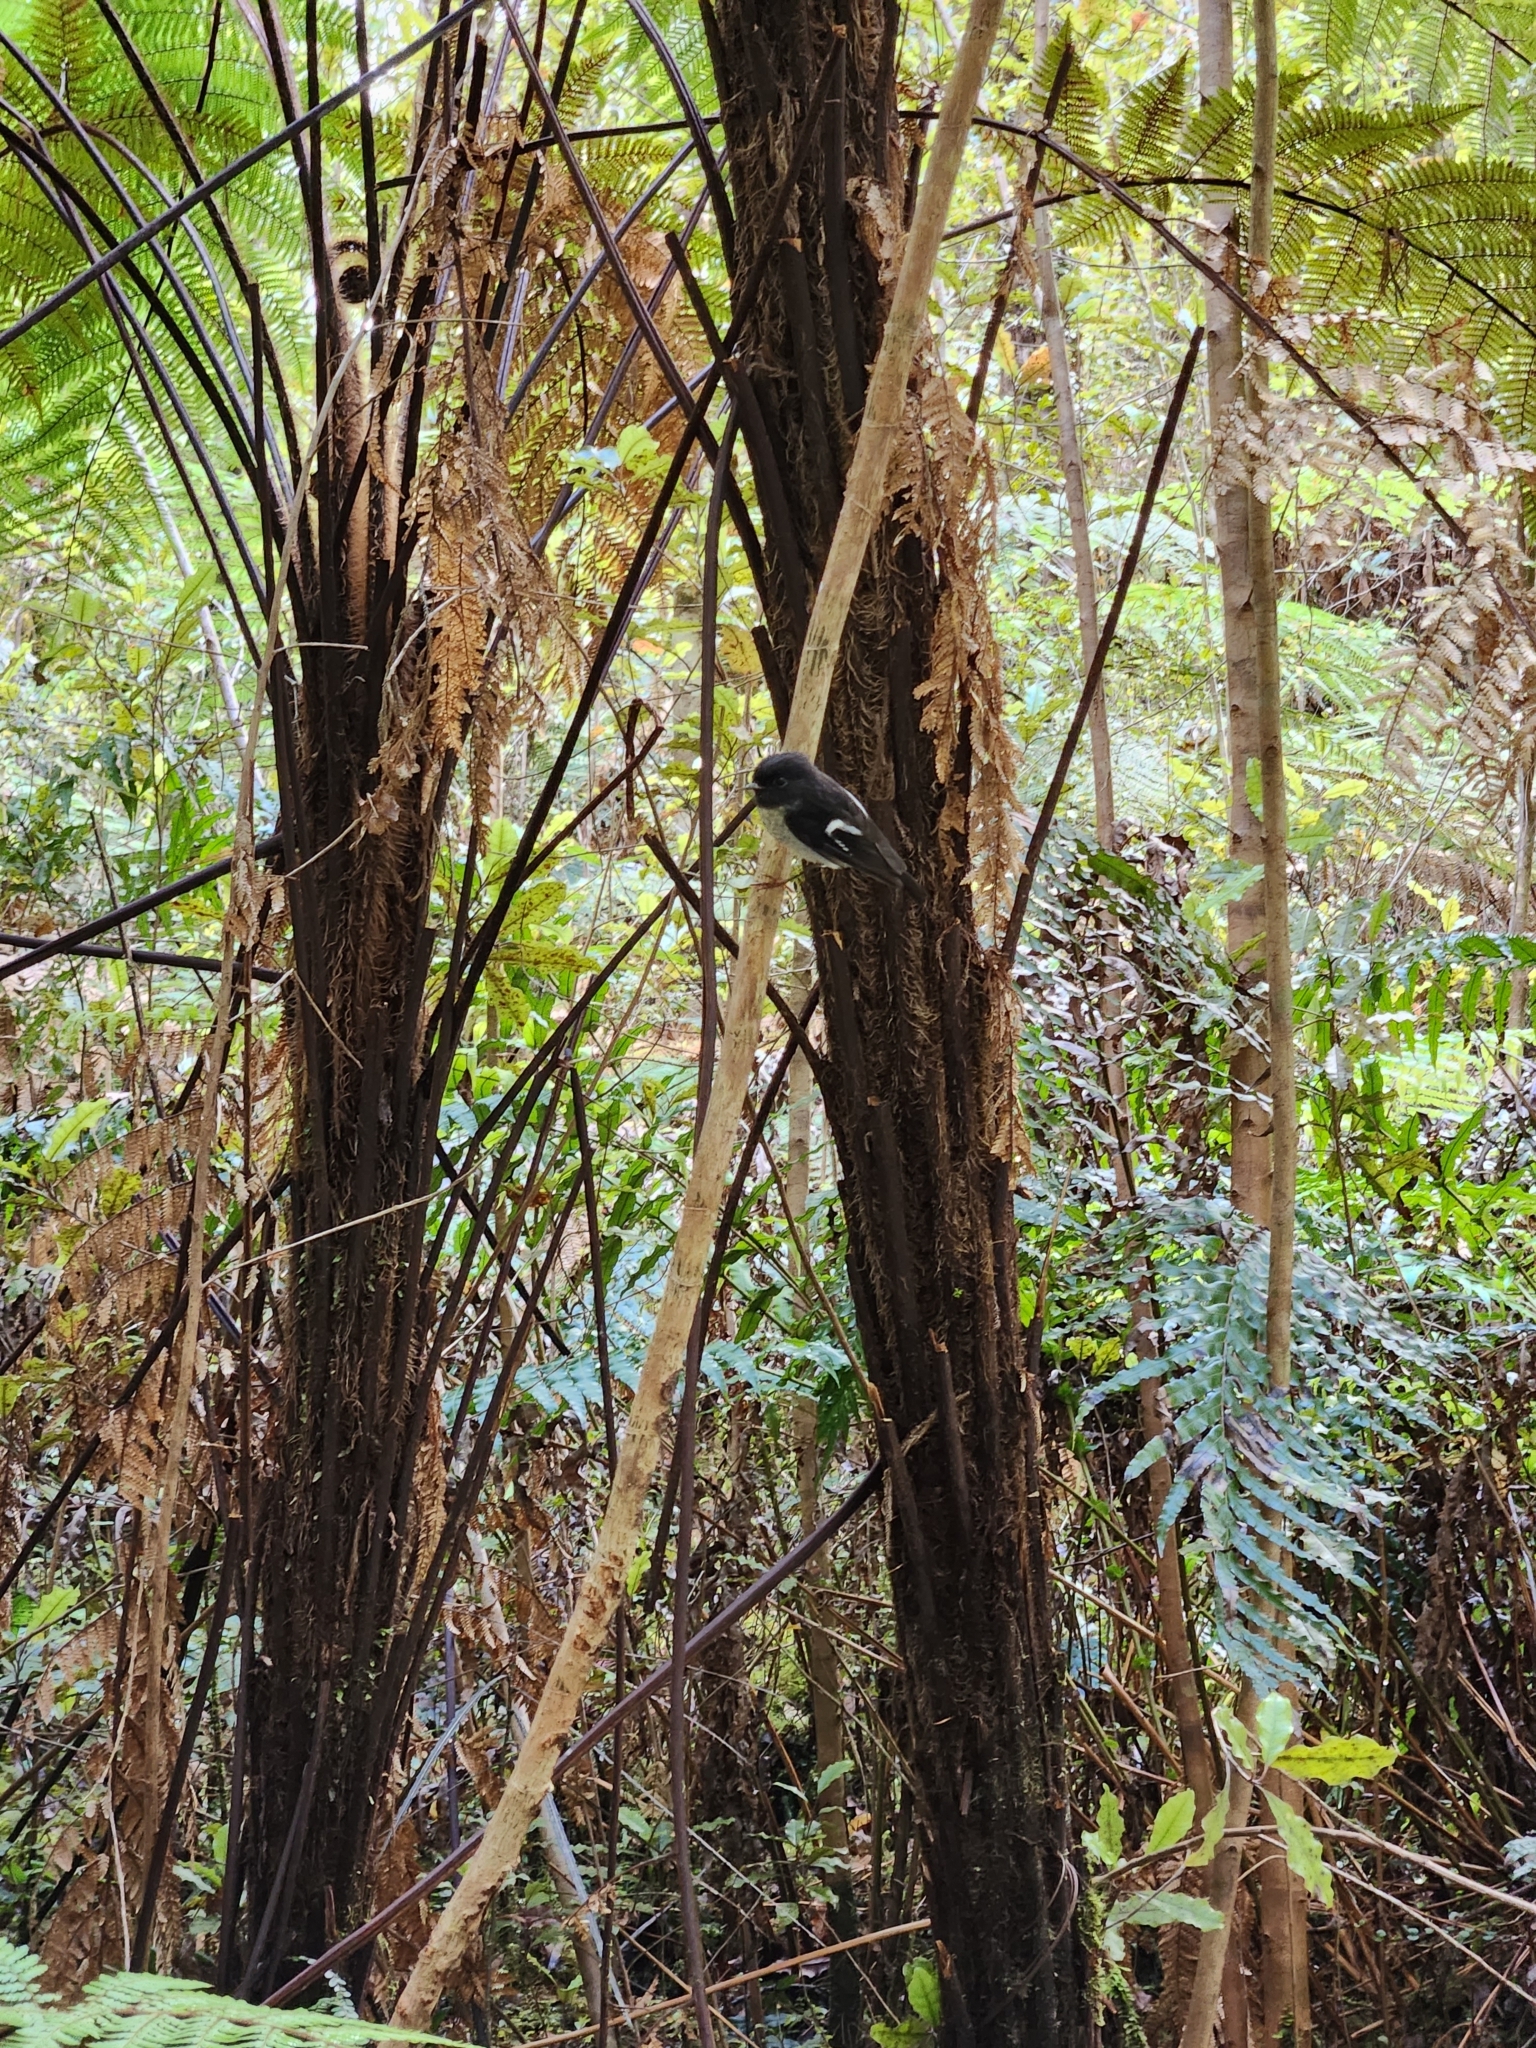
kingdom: Animalia
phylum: Chordata
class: Aves
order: Passeriformes
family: Petroicidae
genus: Petroica
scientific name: Petroica macrocephala
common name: Tomtit
